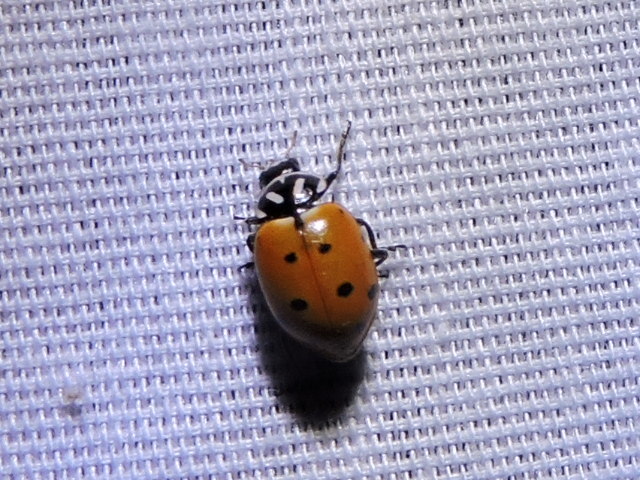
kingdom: Animalia
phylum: Arthropoda
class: Insecta
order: Coleoptera
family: Coccinellidae
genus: Hippodamia
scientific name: Hippodamia convergens
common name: Convergent lady beetle
